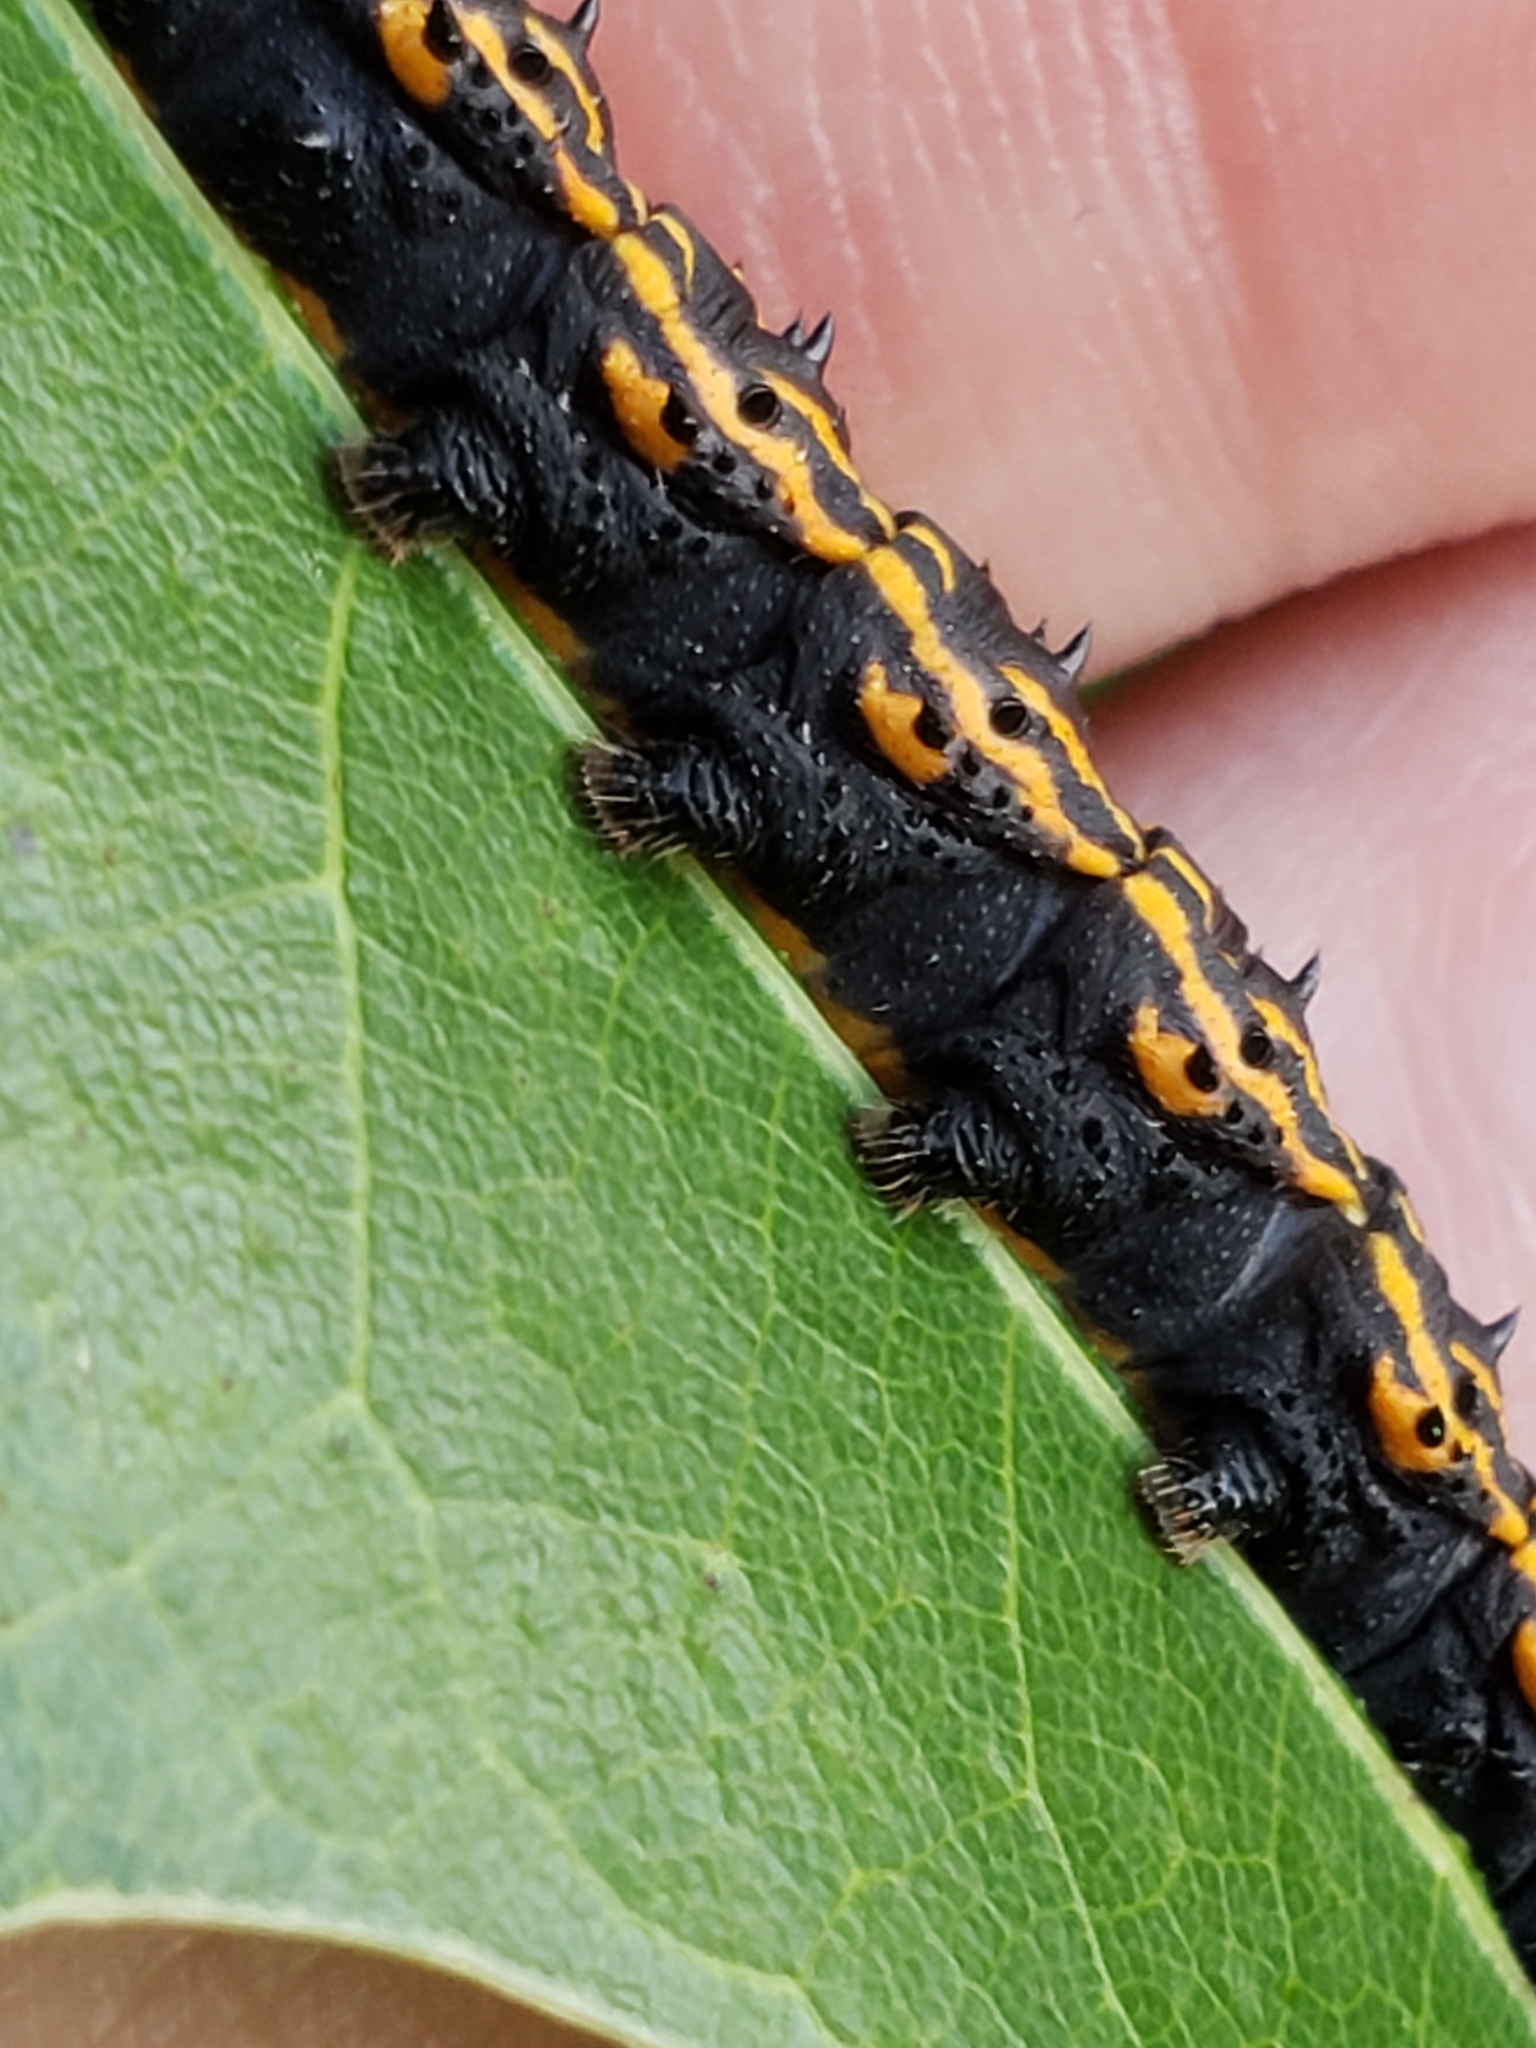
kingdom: Animalia
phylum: Arthropoda
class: Insecta
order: Lepidoptera
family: Saturniidae
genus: Anisota
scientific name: Anisota senatoria
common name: Orange-striped oakworm moth
